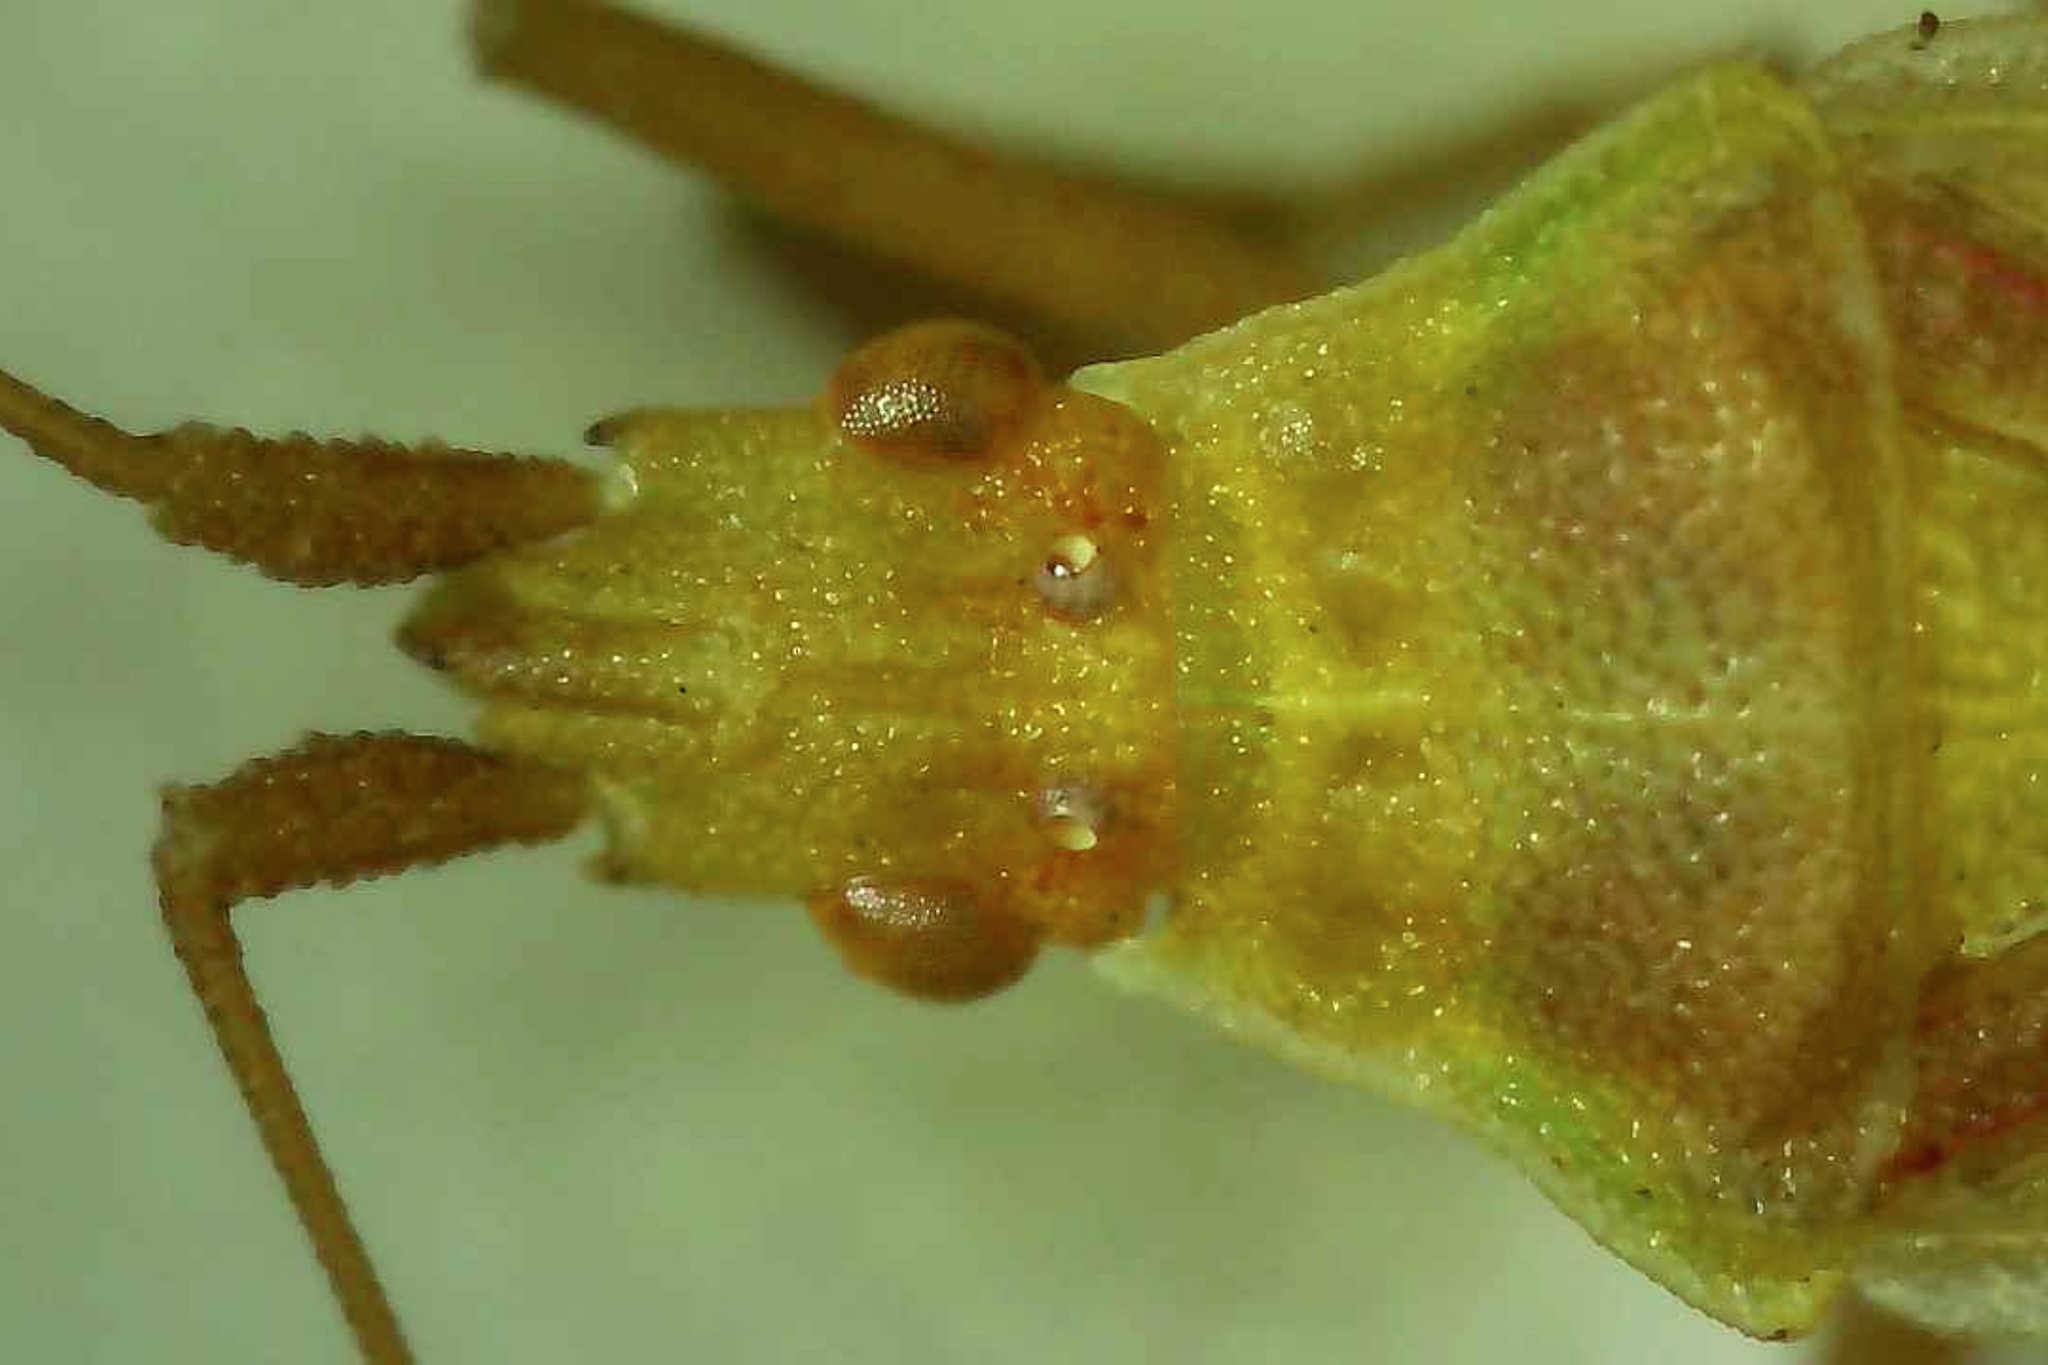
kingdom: Animalia
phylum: Arthropoda
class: Insecta
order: Hemiptera
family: Rhopalidae
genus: Harmostes
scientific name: Harmostes reflexulus
